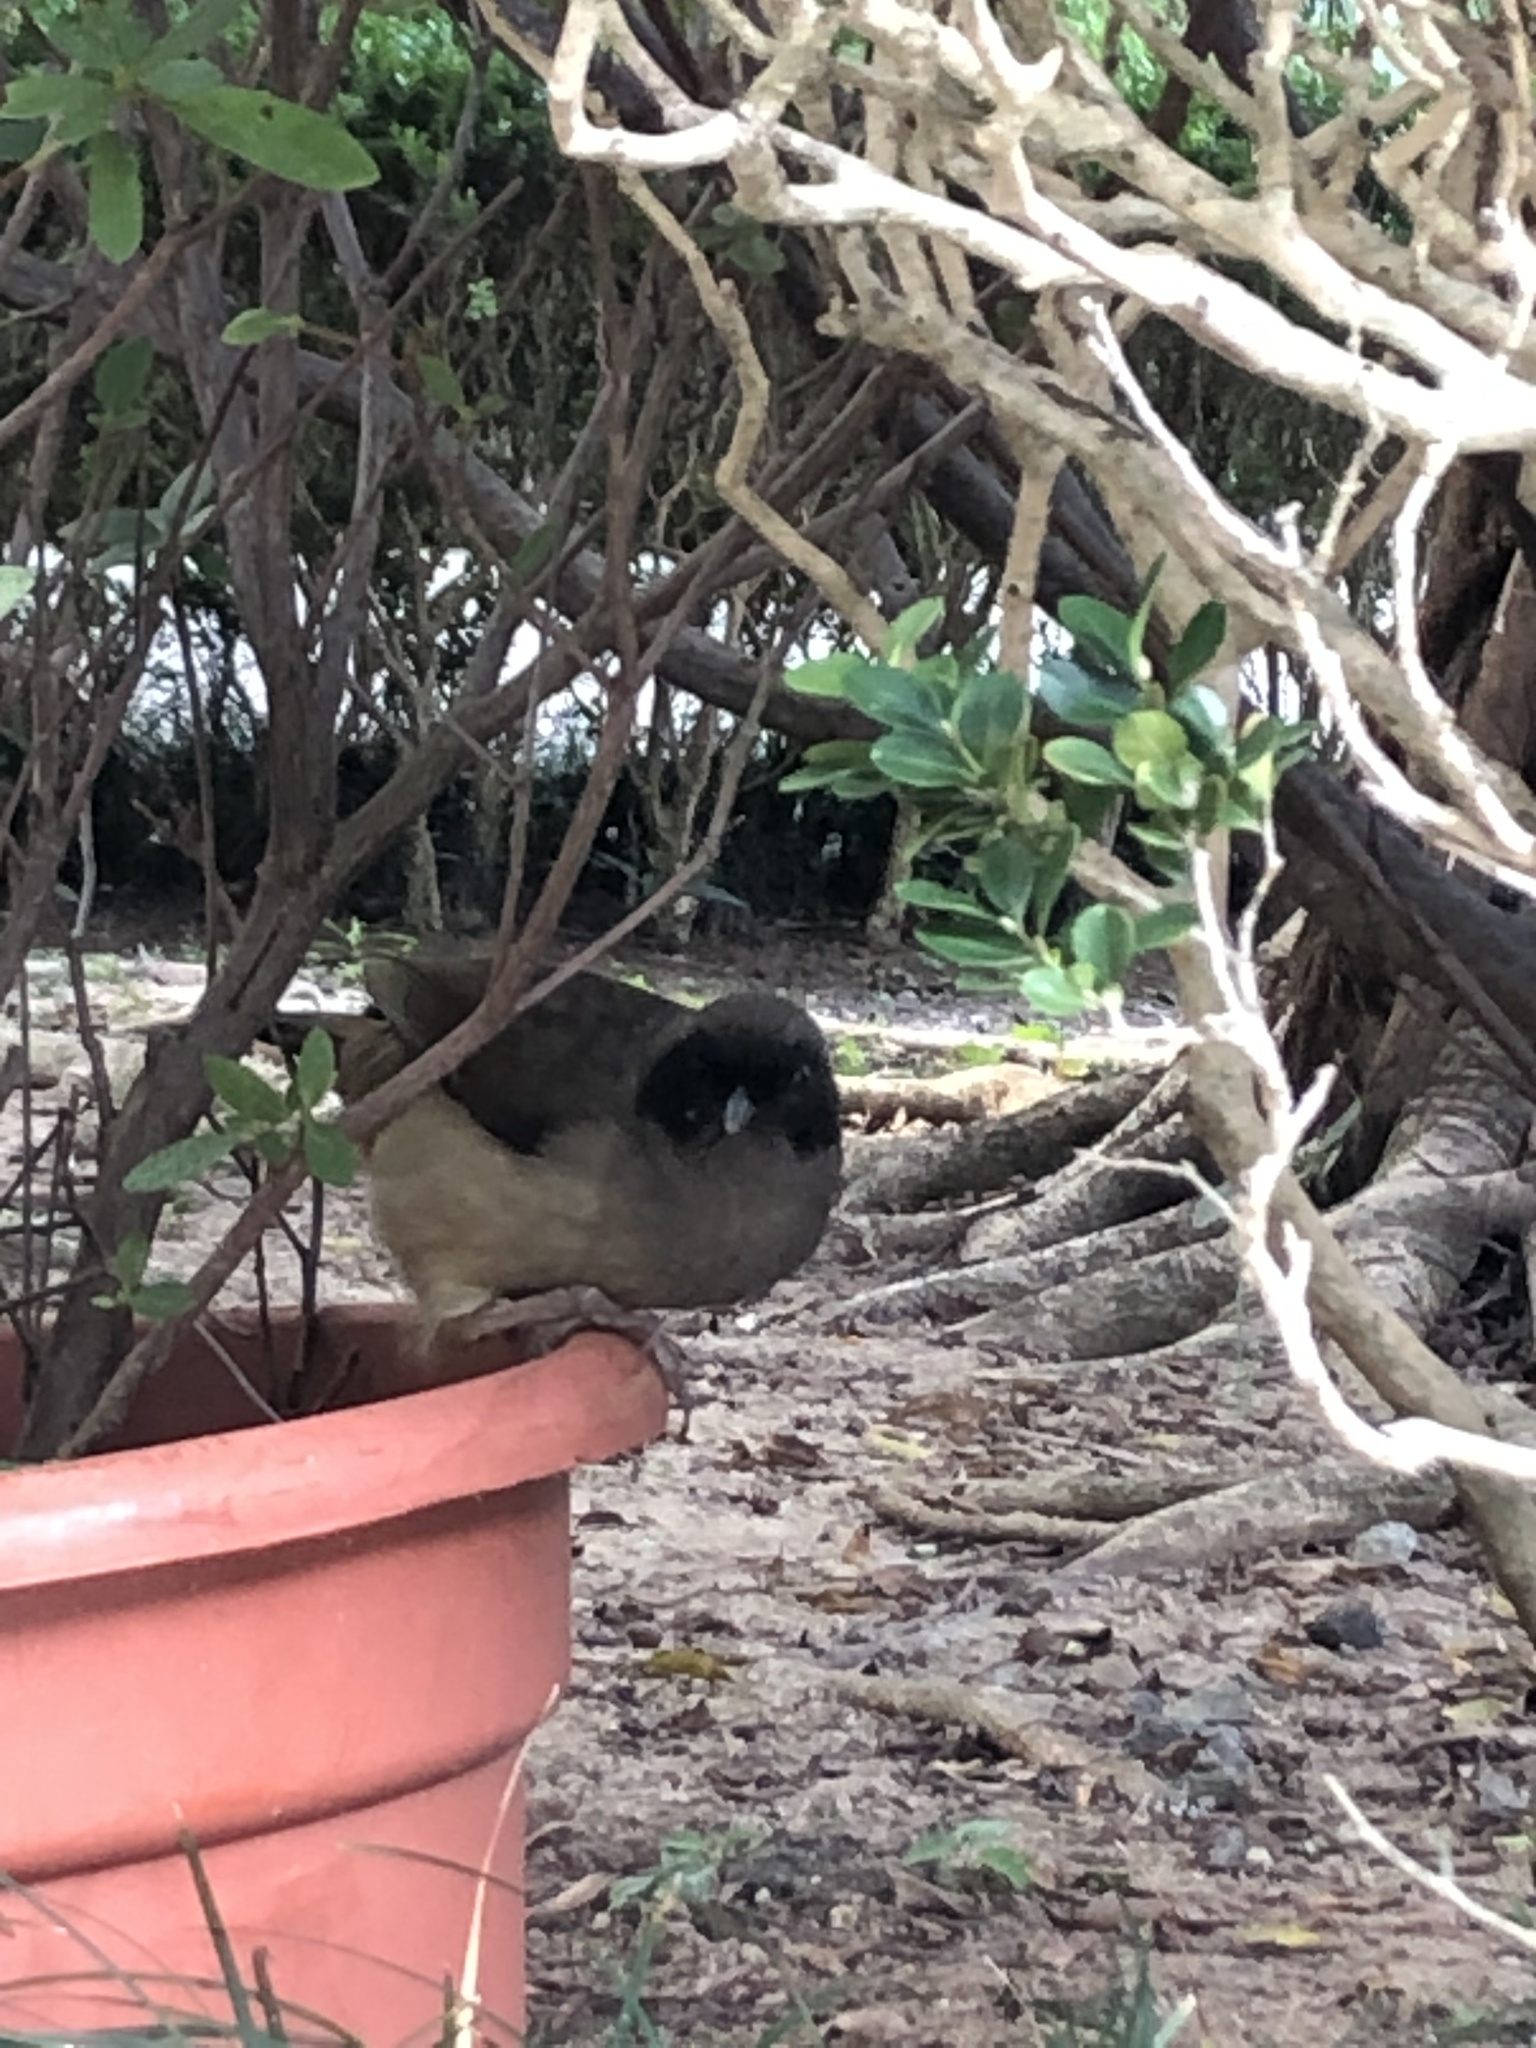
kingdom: Animalia
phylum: Chordata
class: Aves
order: Passeriformes
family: Leiothrichidae
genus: Garrulax
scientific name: Garrulax perspicillatus
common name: Masked laughingthrush
